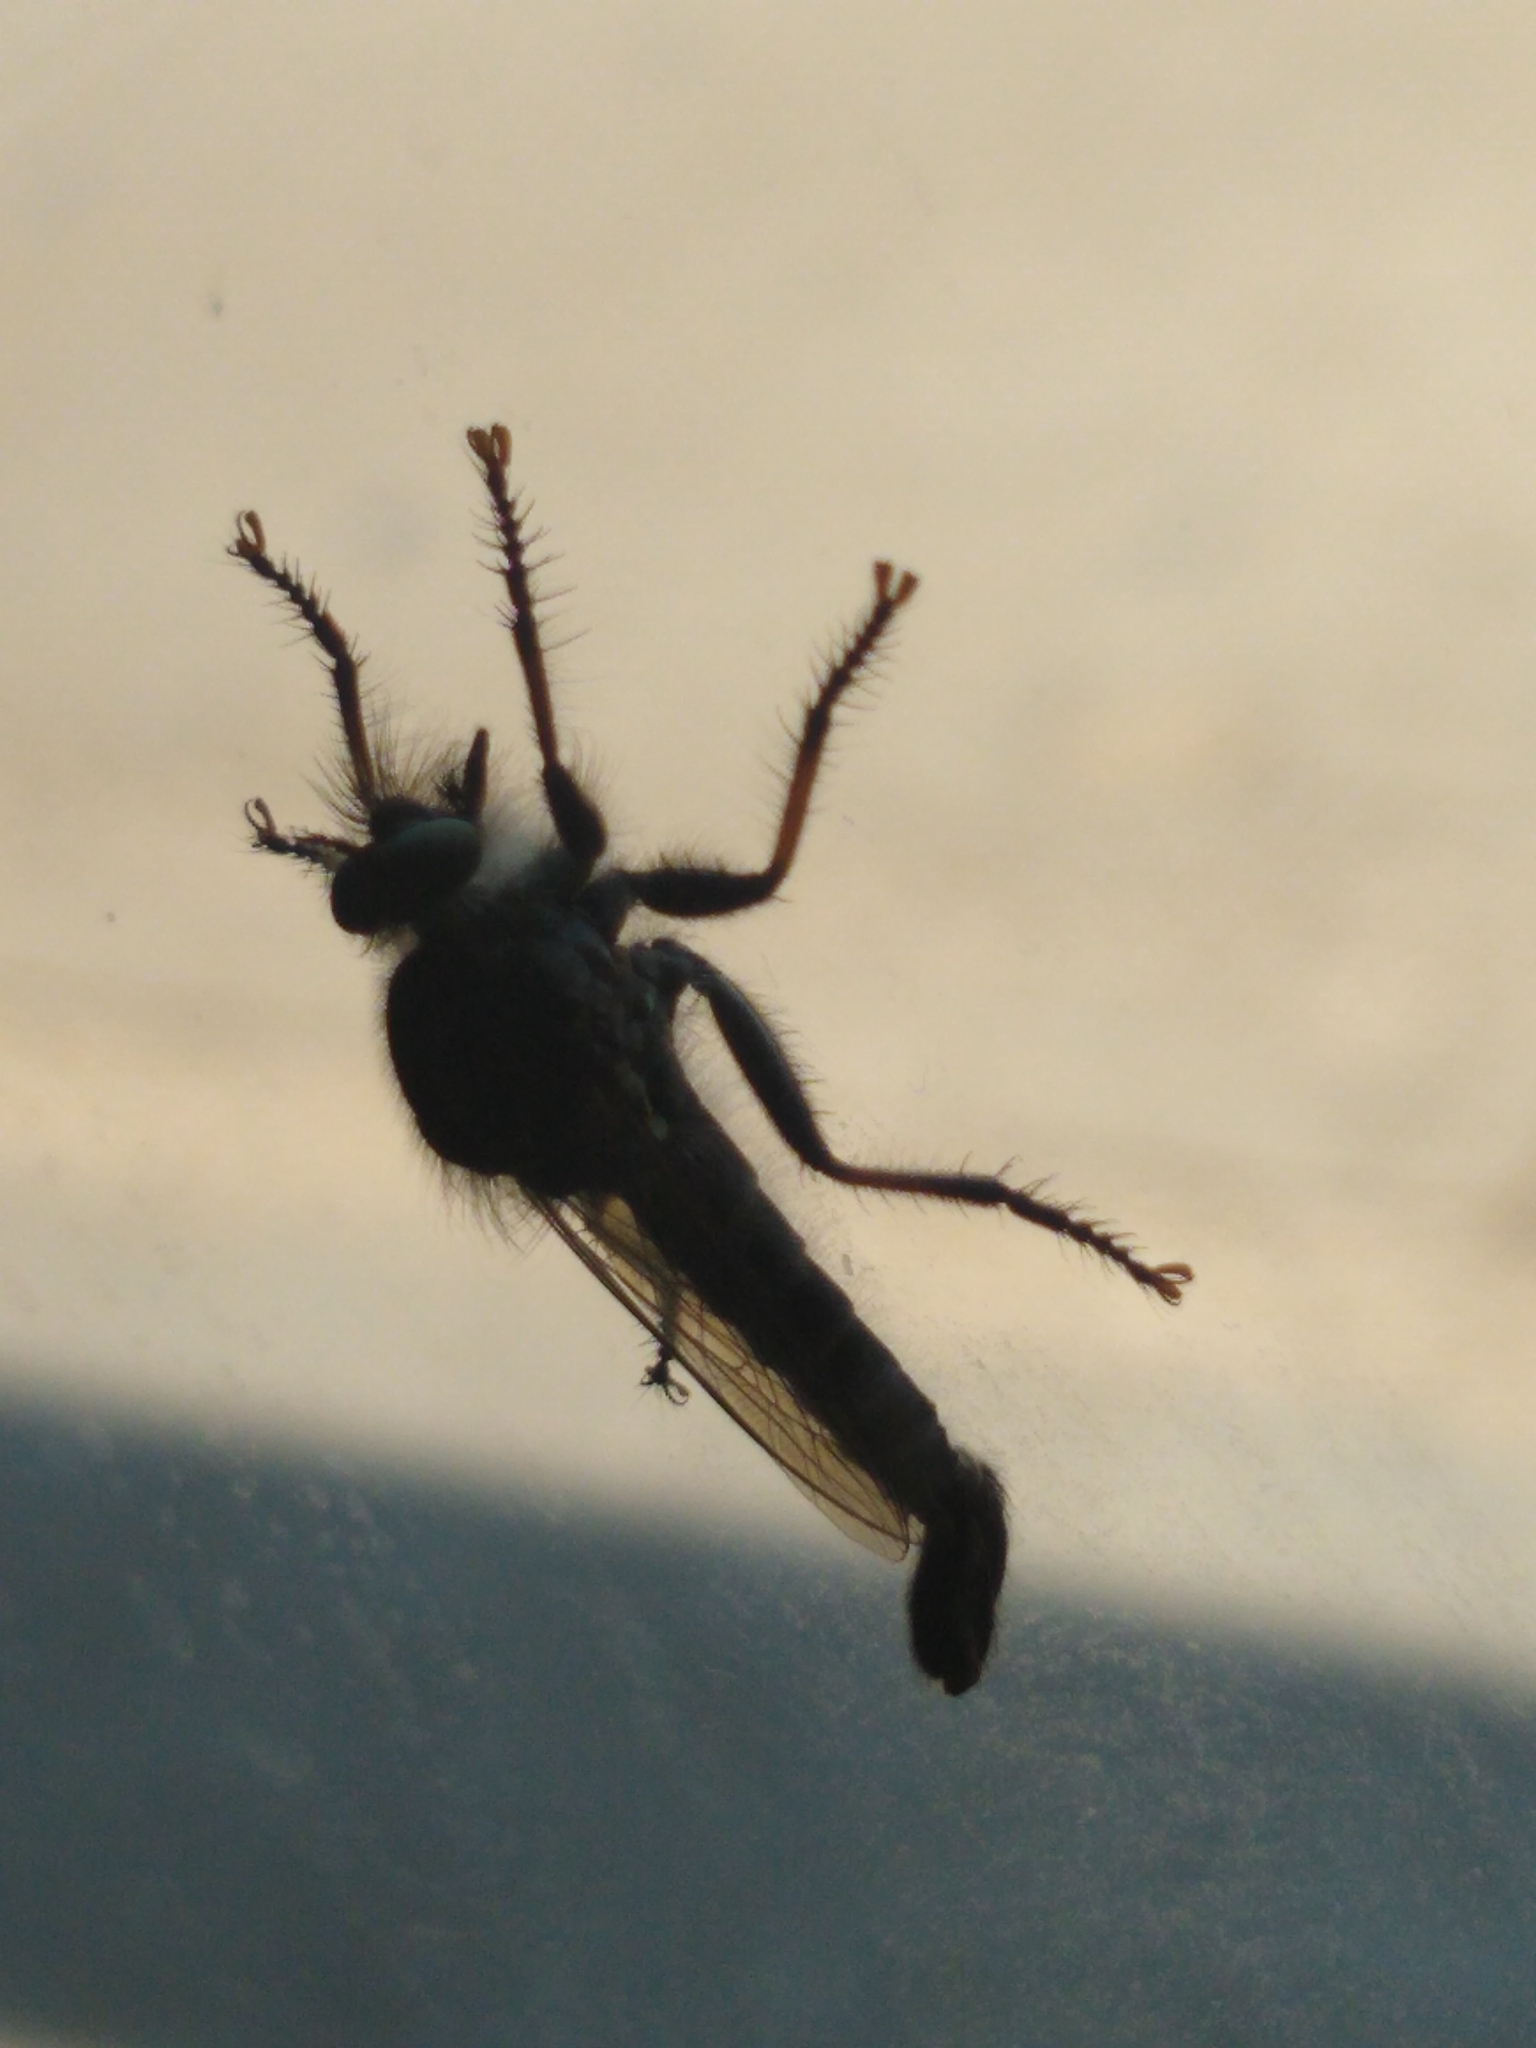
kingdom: Animalia
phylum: Arthropoda
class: Insecta
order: Diptera
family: Asilidae
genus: Efferia
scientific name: Efferia aestuans
